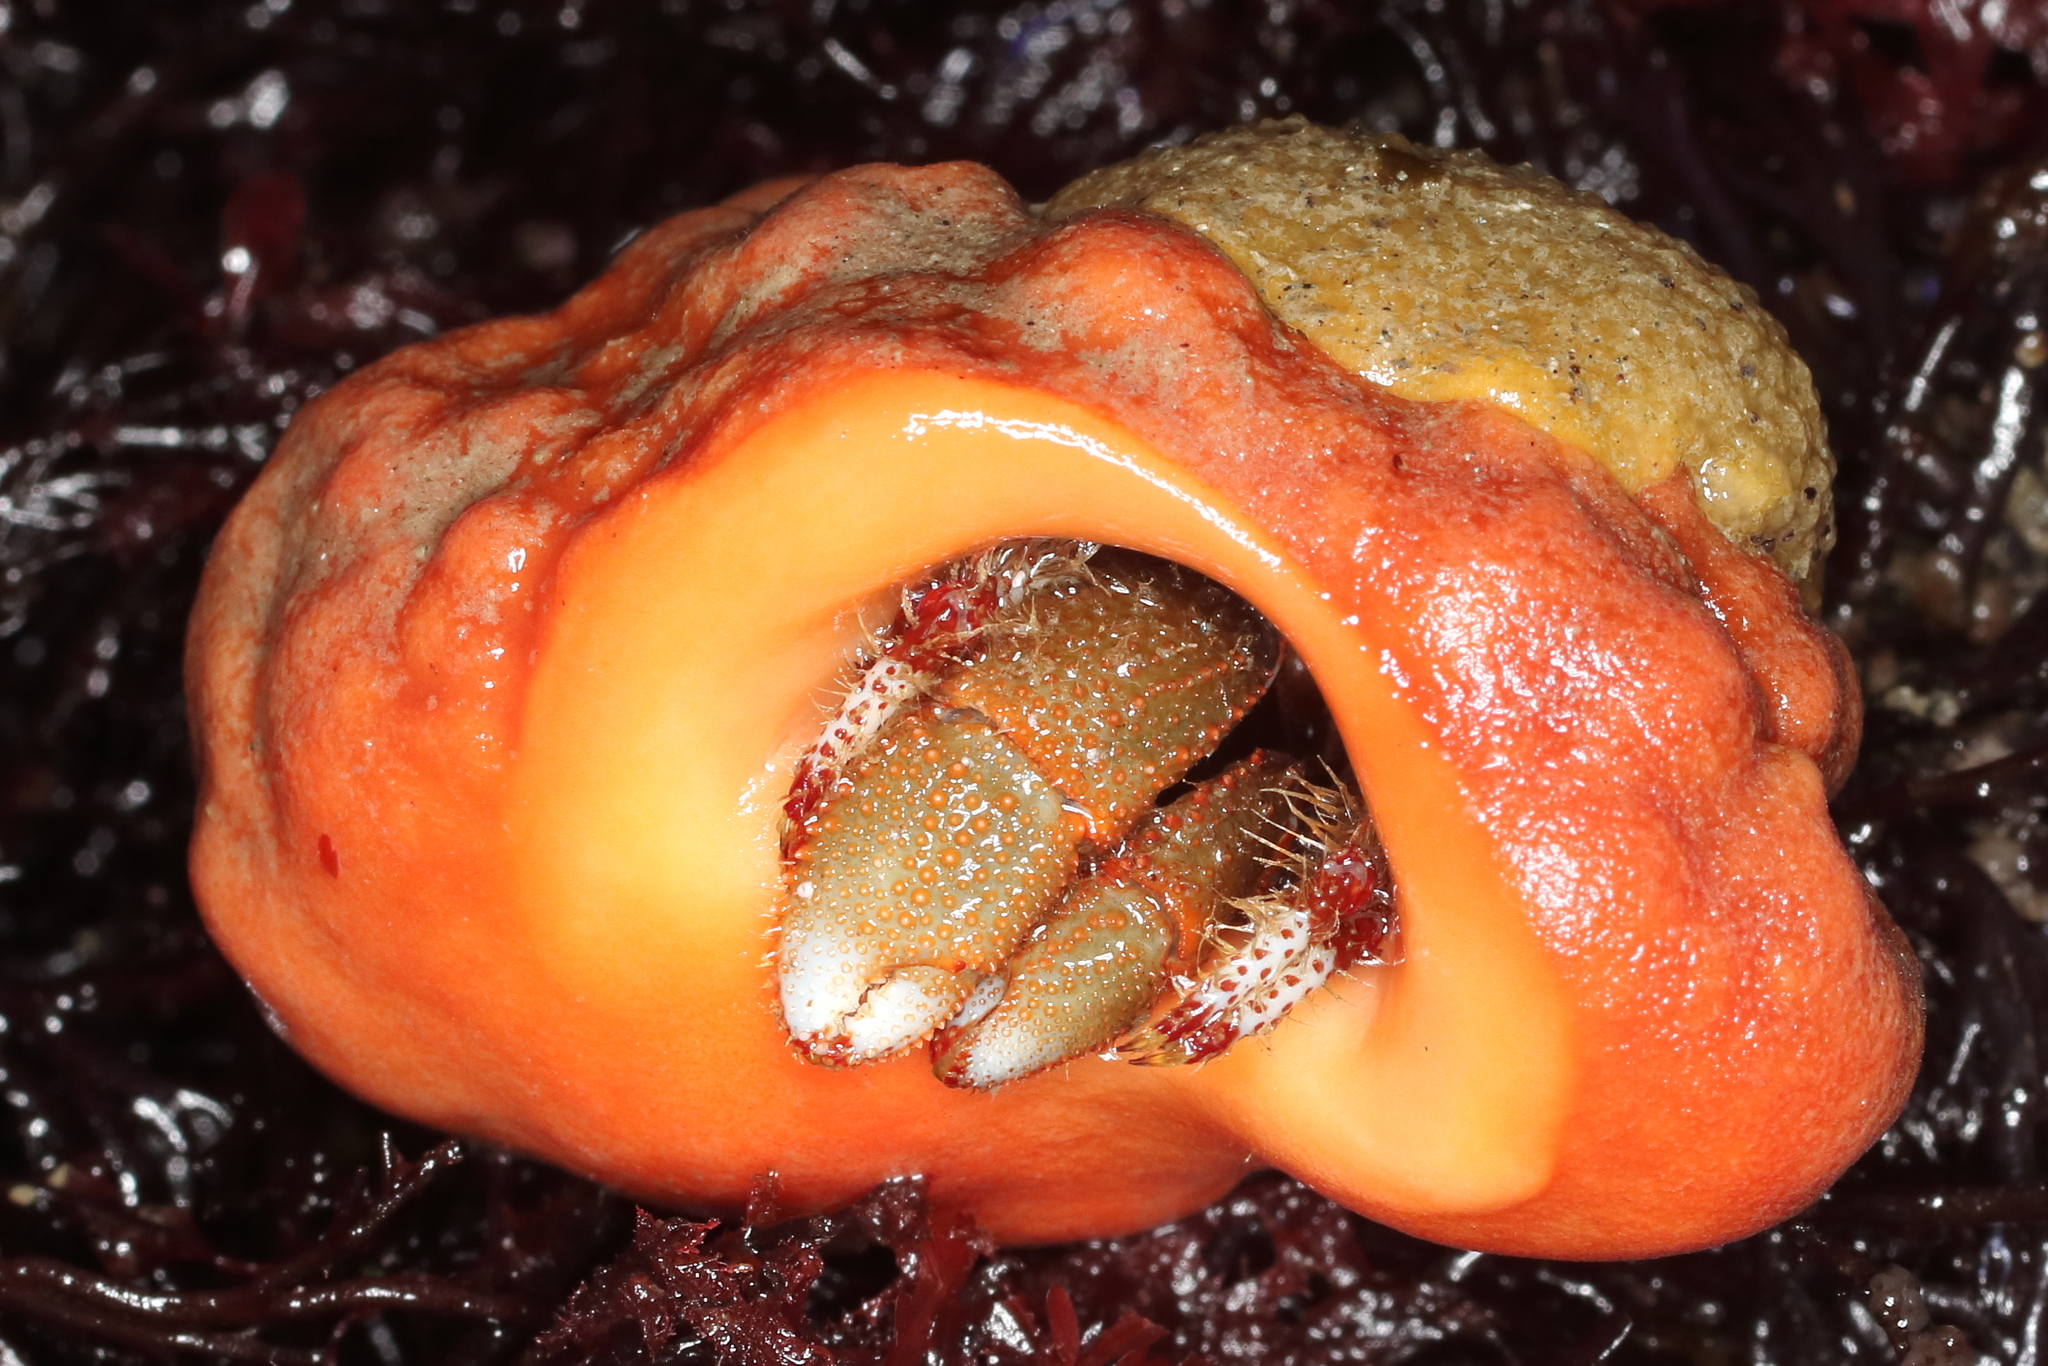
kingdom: Animalia
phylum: Arthropoda
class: Malacostraca
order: Decapoda
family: Paguridae
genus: Pagurus
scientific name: Pagurus beringanus
